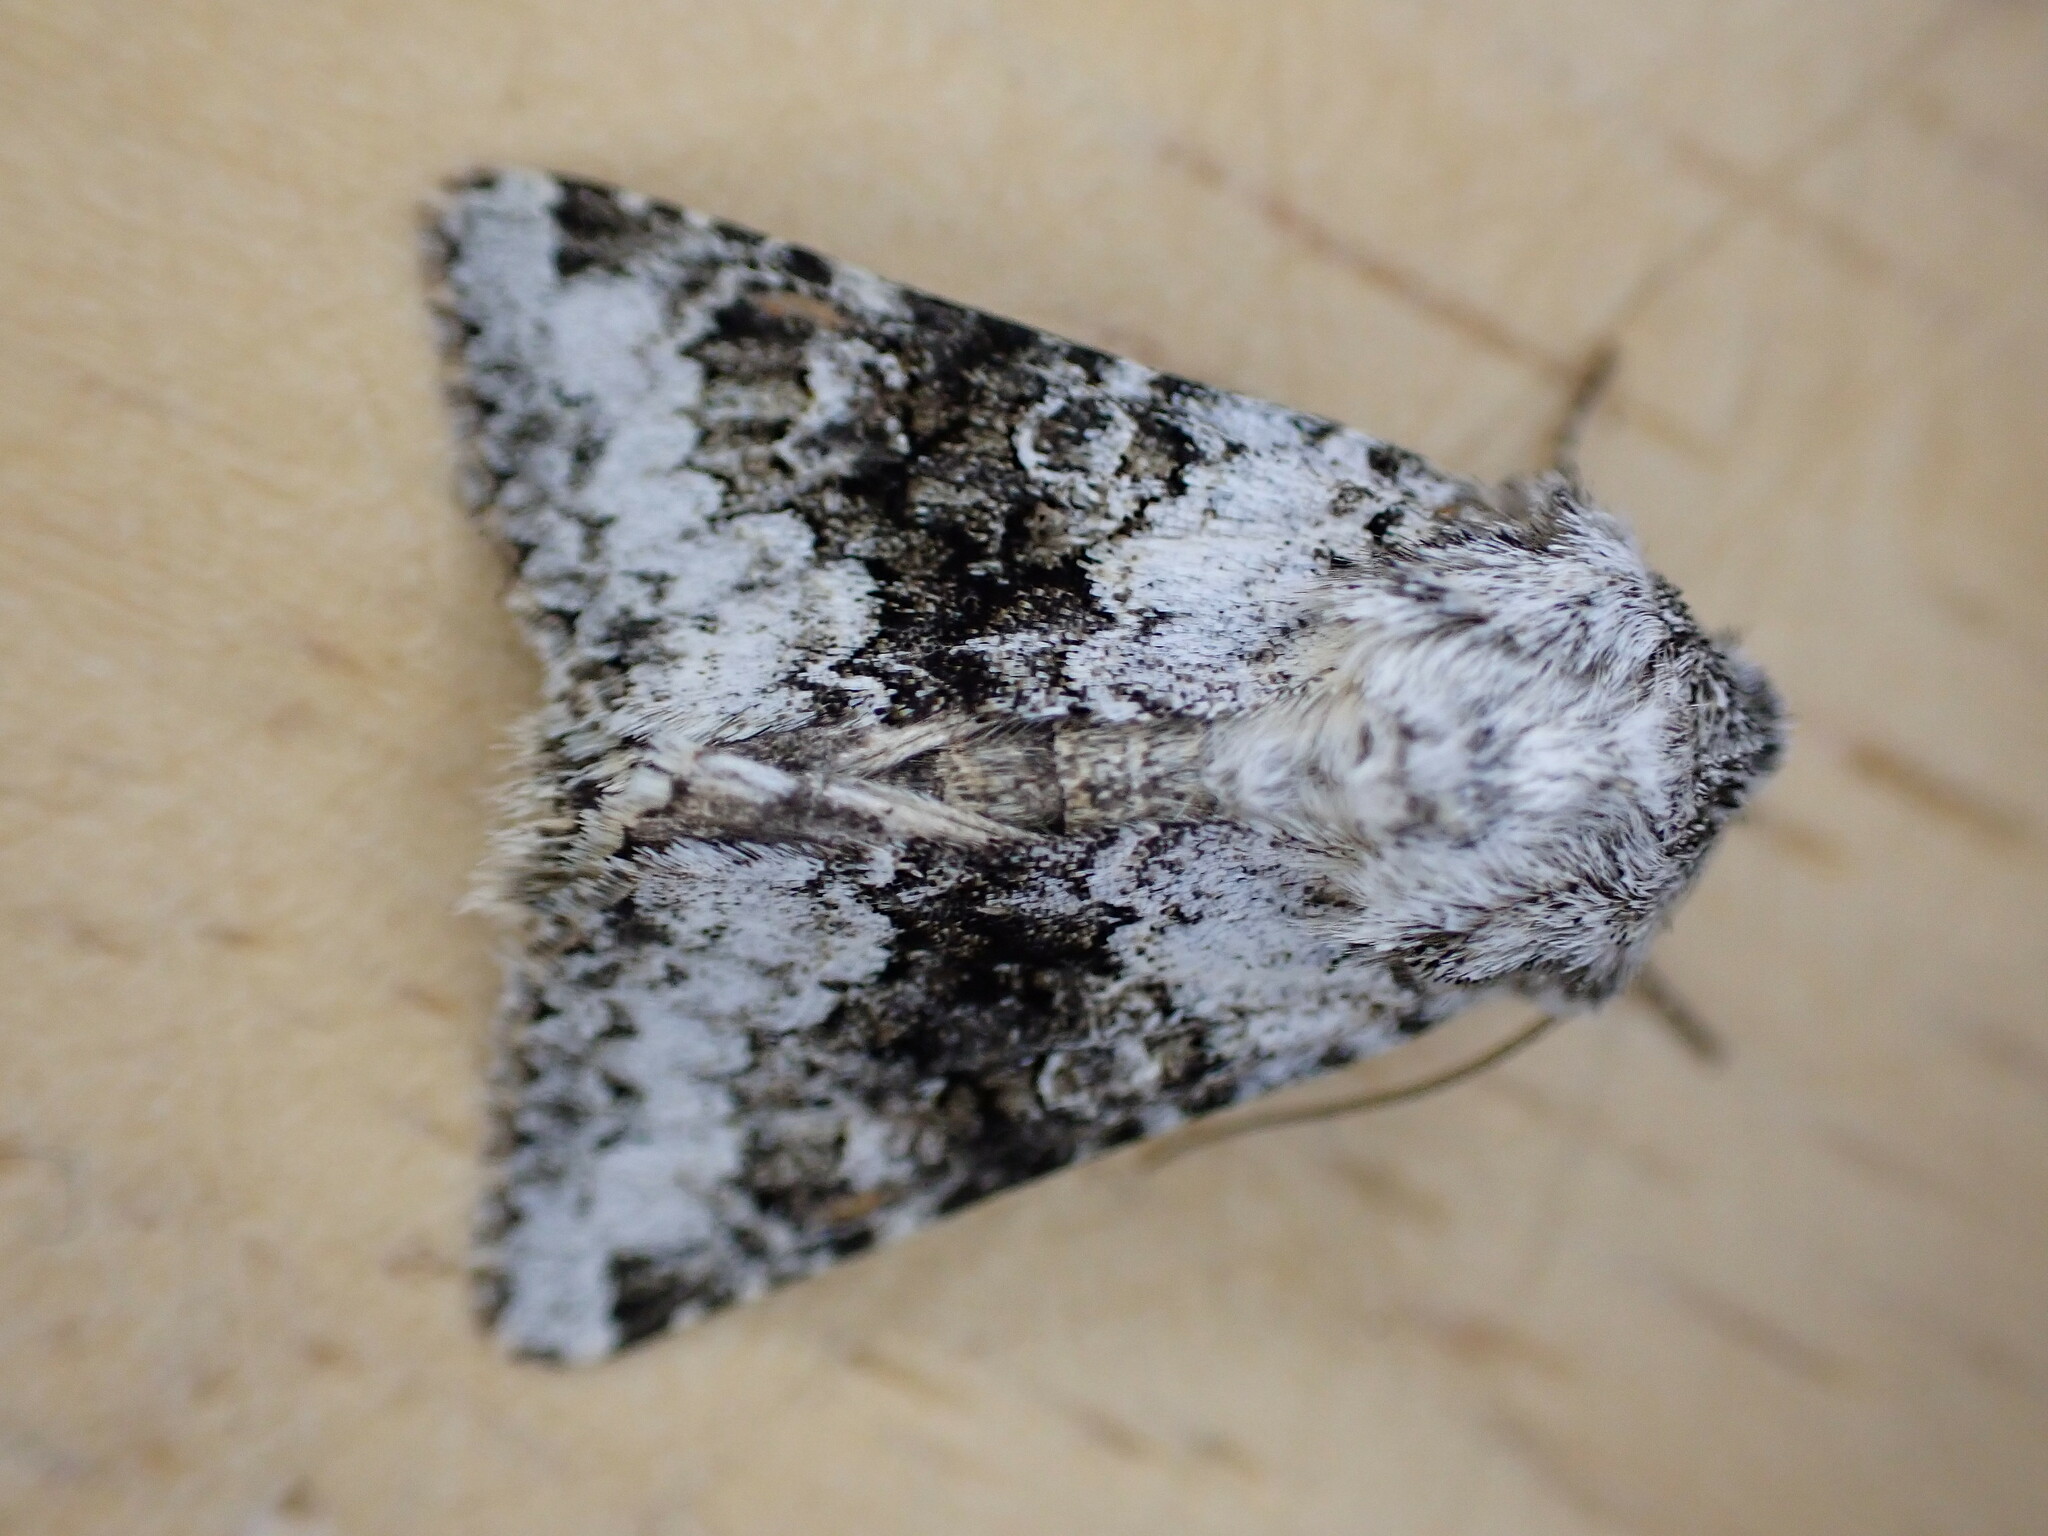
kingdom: Animalia
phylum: Arthropoda
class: Insecta
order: Lepidoptera
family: Noctuidae
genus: Hecatera
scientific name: Hecatera bicolorata
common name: Broad-barred white
